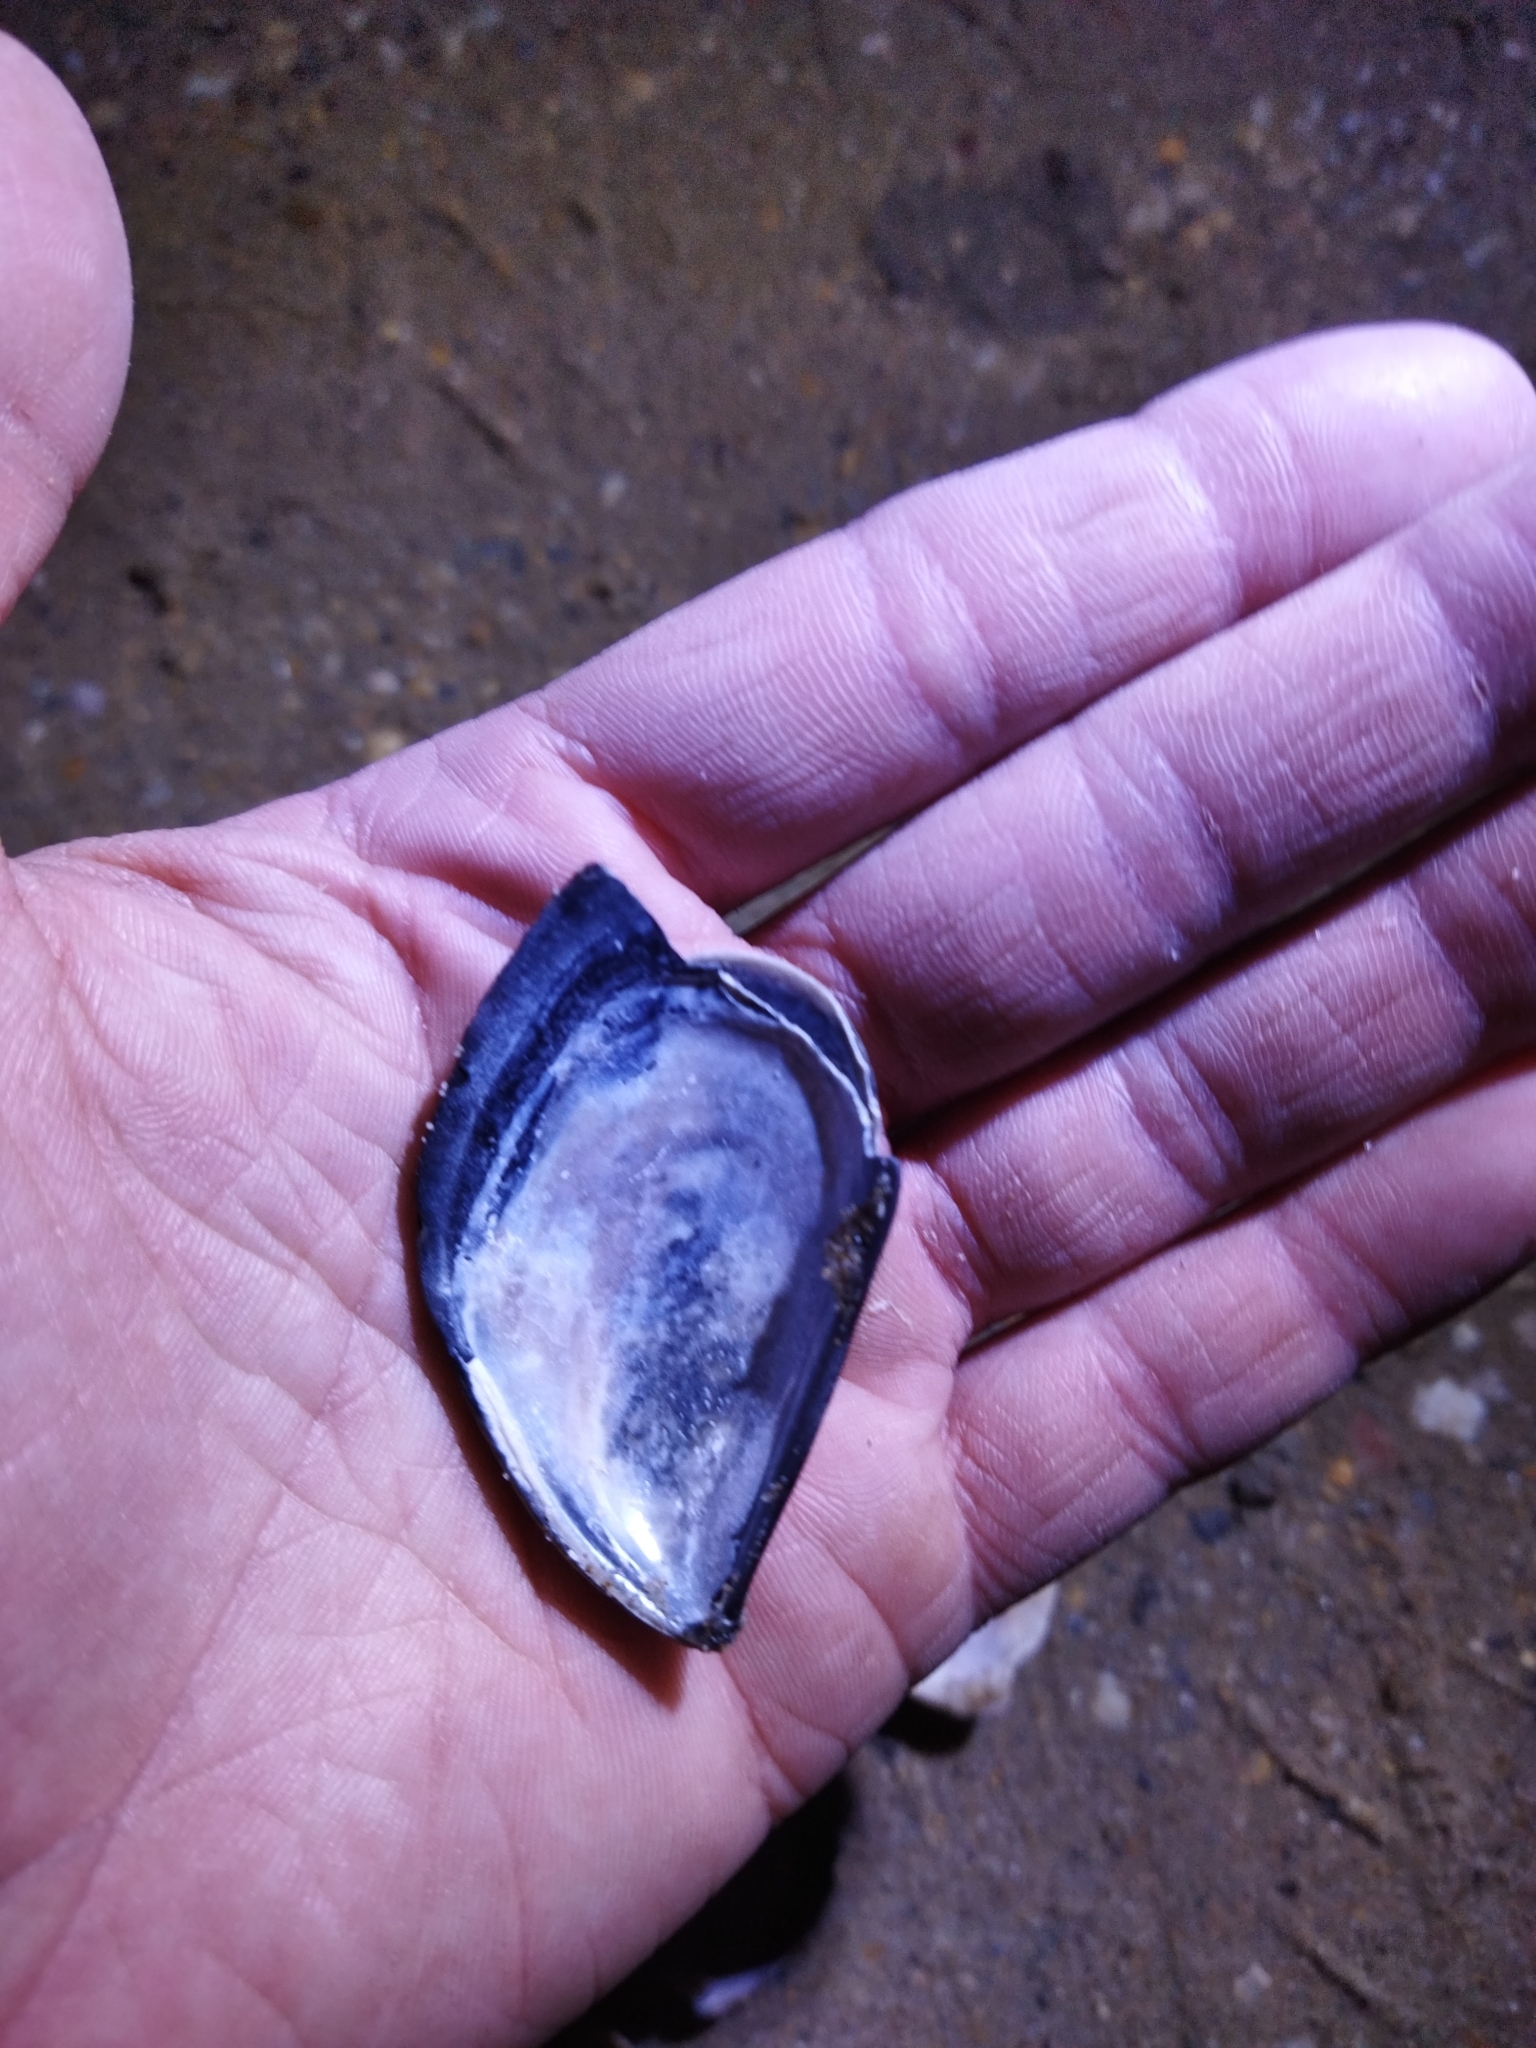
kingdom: Animalia
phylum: Mollusca
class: Bivalvia
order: Mytilida
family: Mytilidae
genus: Mytilus
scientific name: Mytilus galloprovincialis
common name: Mediterranean mussel
